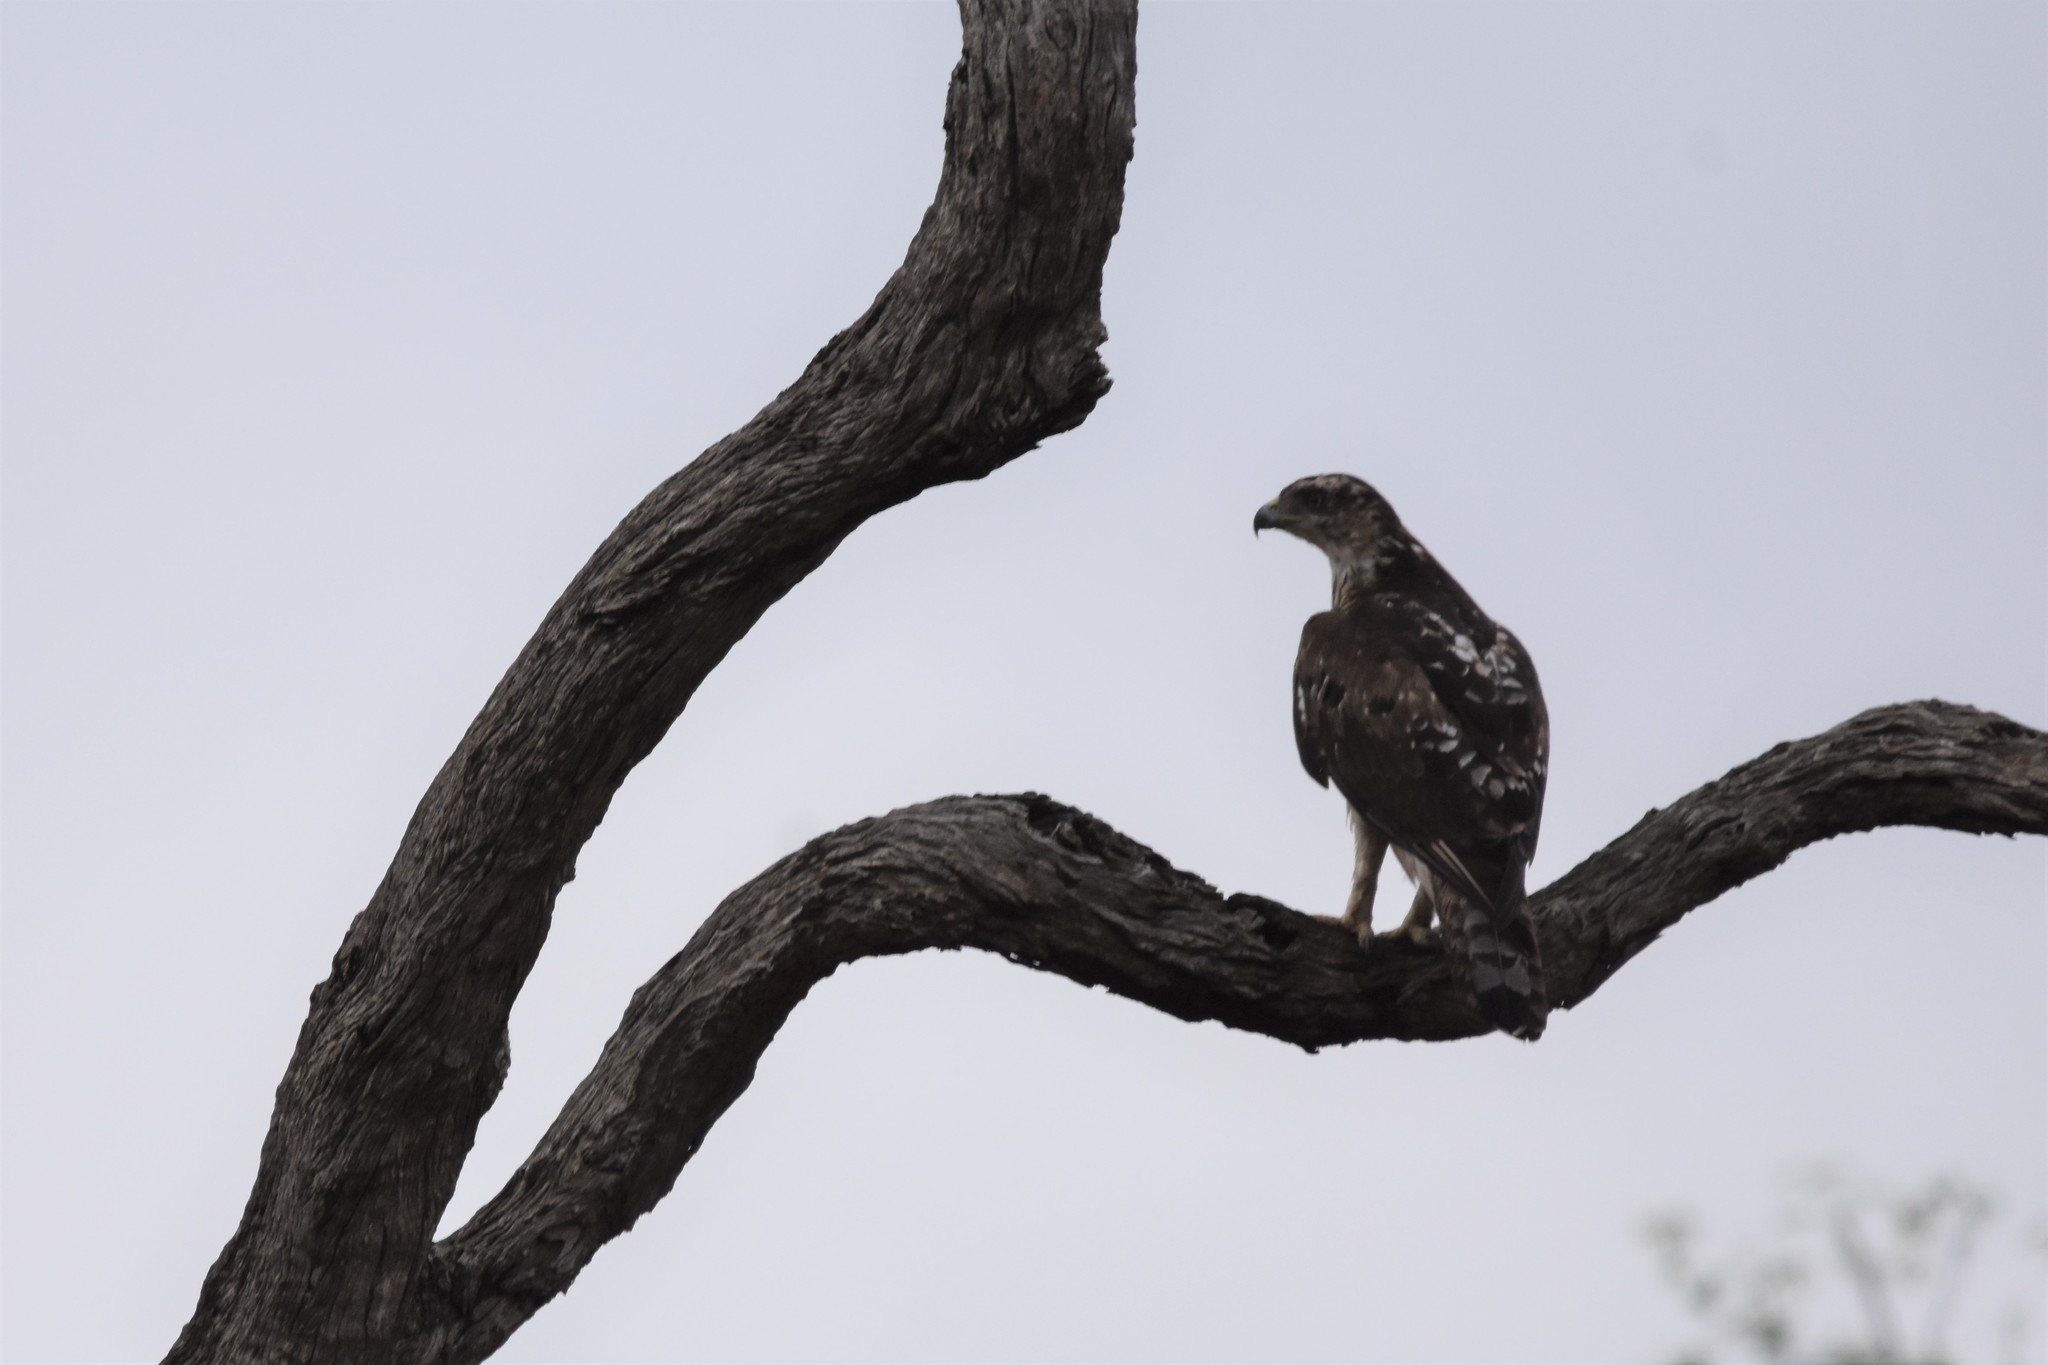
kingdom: Animalia
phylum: Chordata
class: Aves
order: Accipitriformes
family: Accipitridae
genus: Aquila
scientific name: Aquila spilogaster
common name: African hawk-eagle
